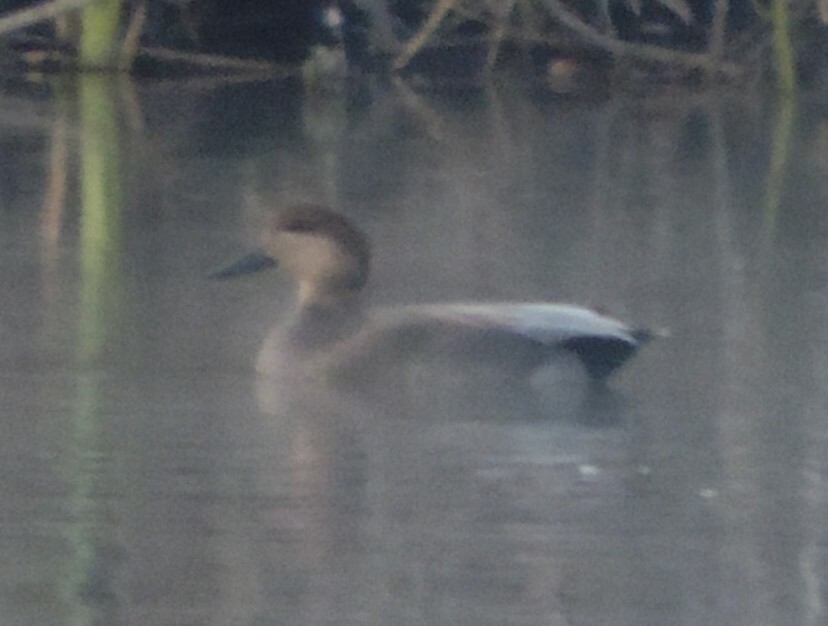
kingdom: Animalia
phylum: Chordata
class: Aves
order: Anseriformes
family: Anatidae
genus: Mareca
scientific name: Mareca strepera
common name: Gadwall
